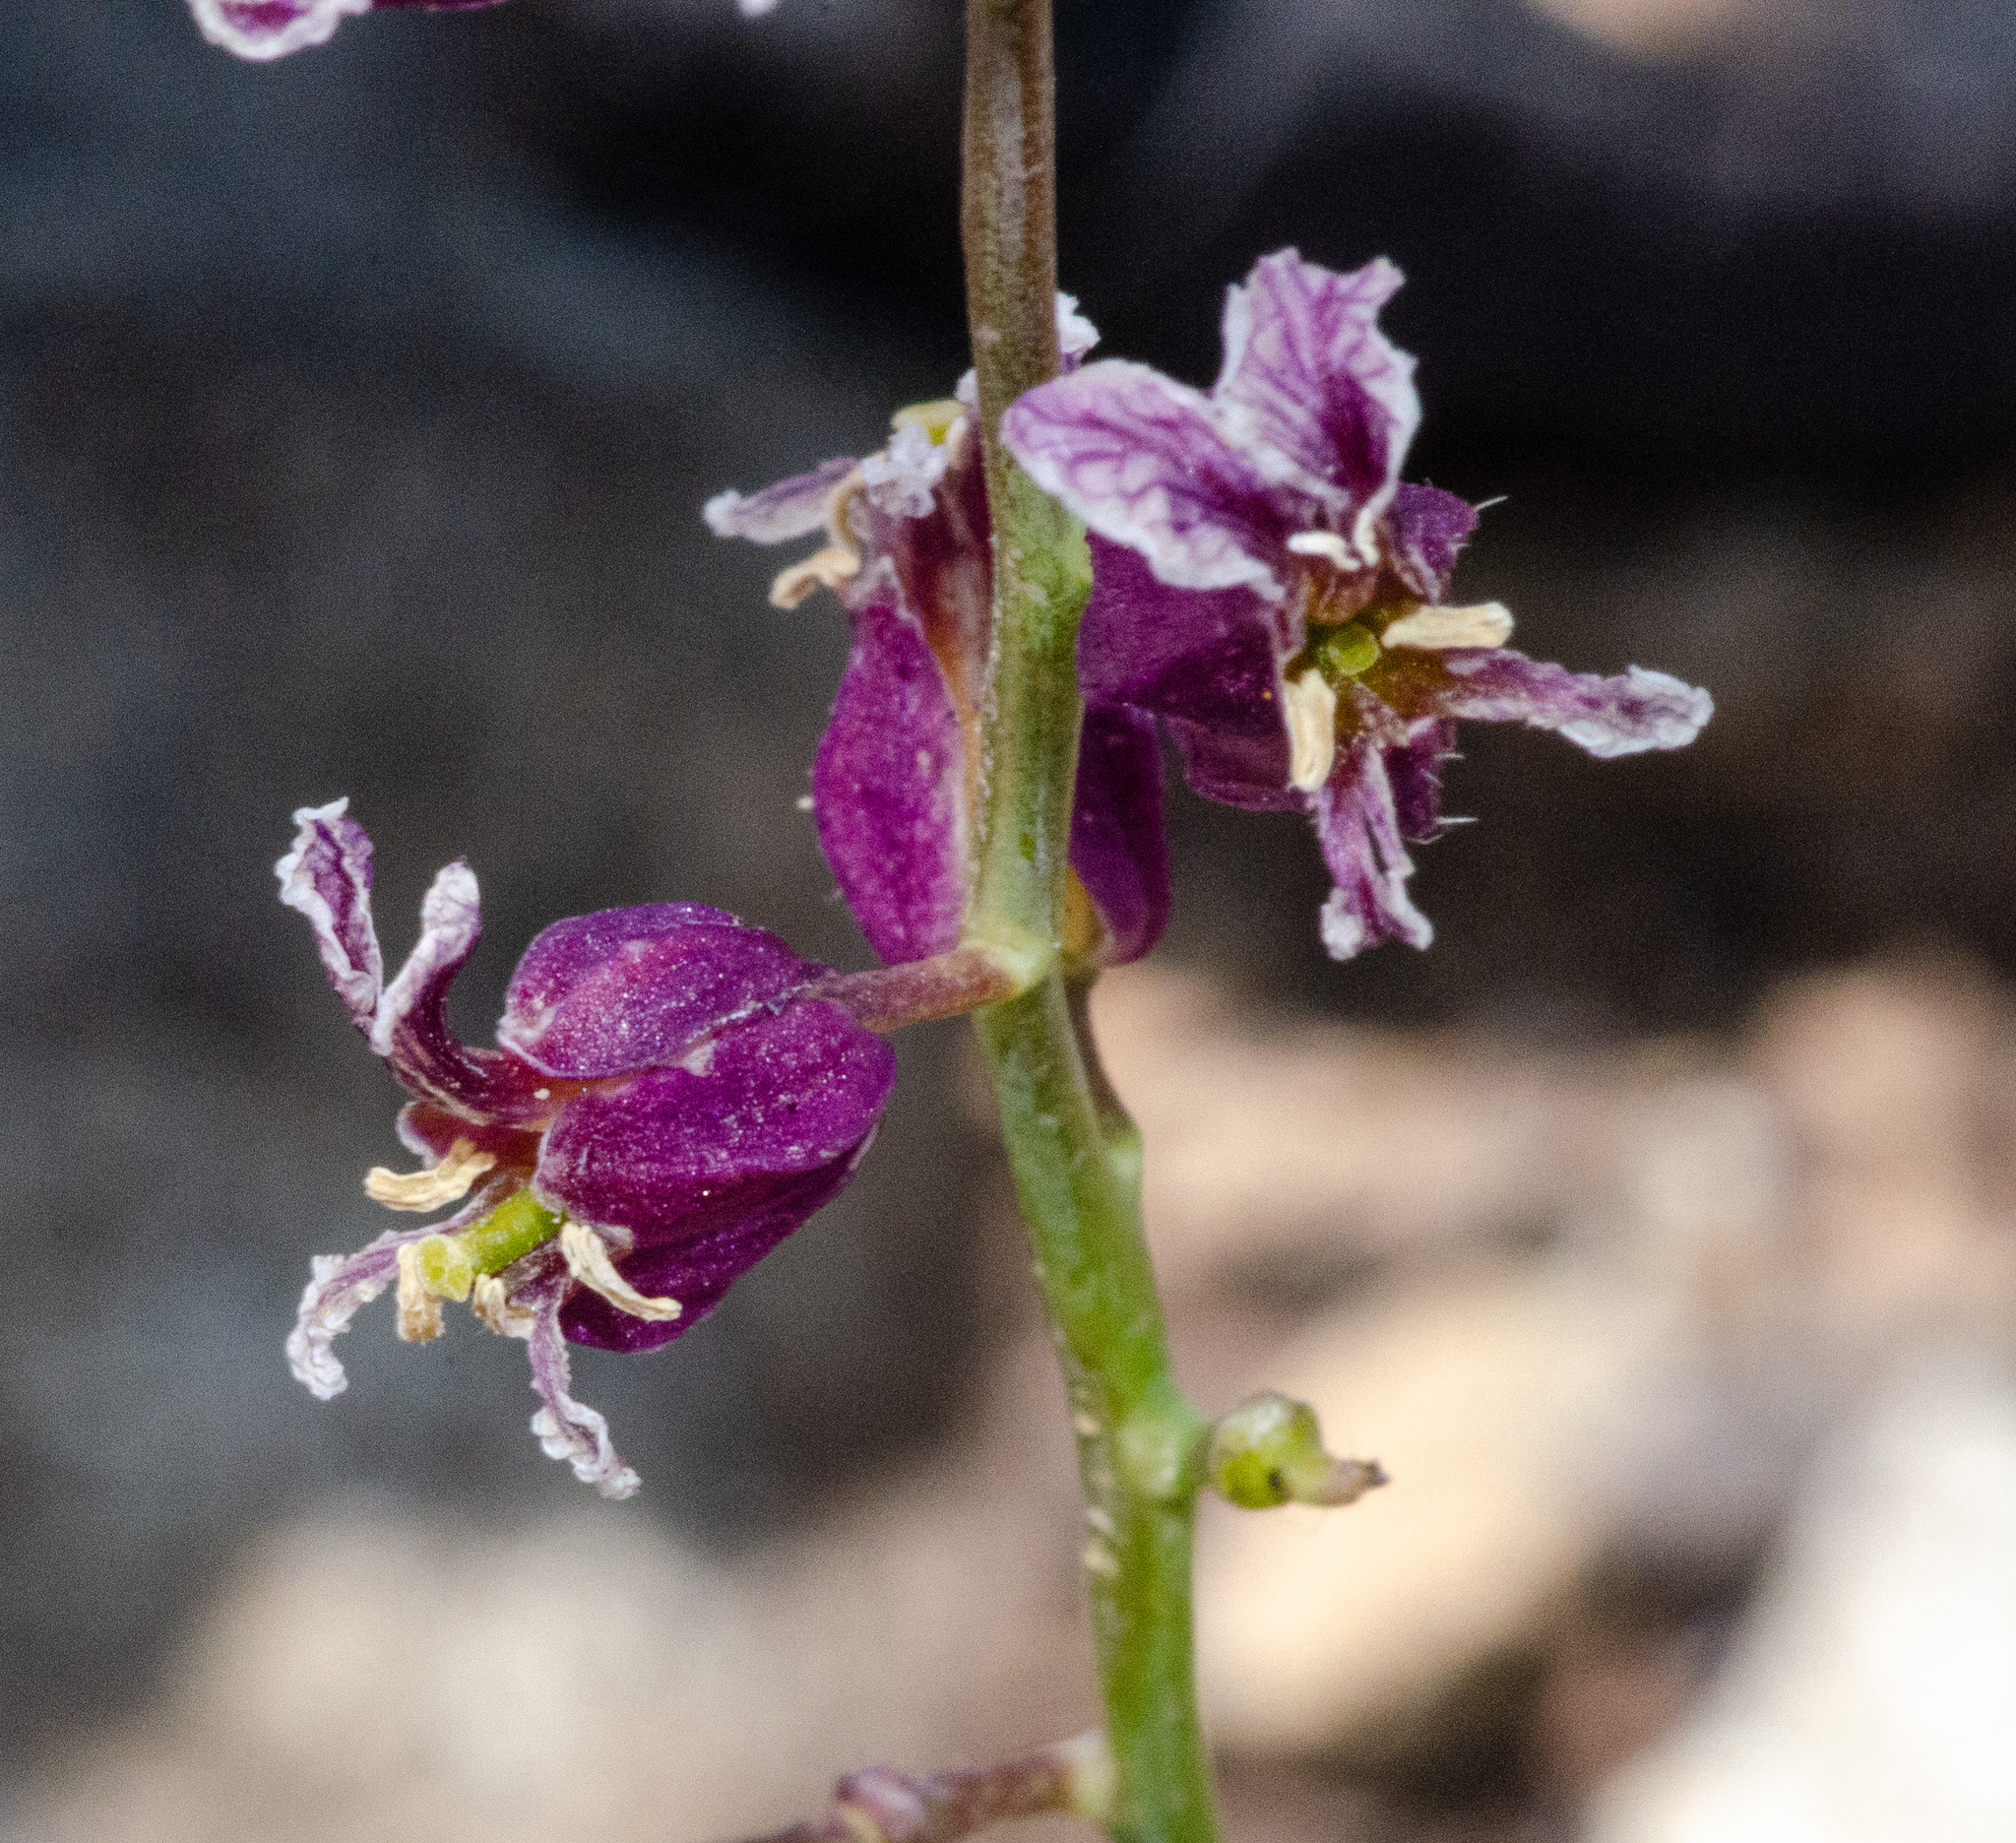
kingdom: Plantae
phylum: Tracheophyta
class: Magnoliopsida
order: Brassicales
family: Brassicaceae
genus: Streptanthus
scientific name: Streptanthus glandulosus
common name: Jewel-flower
